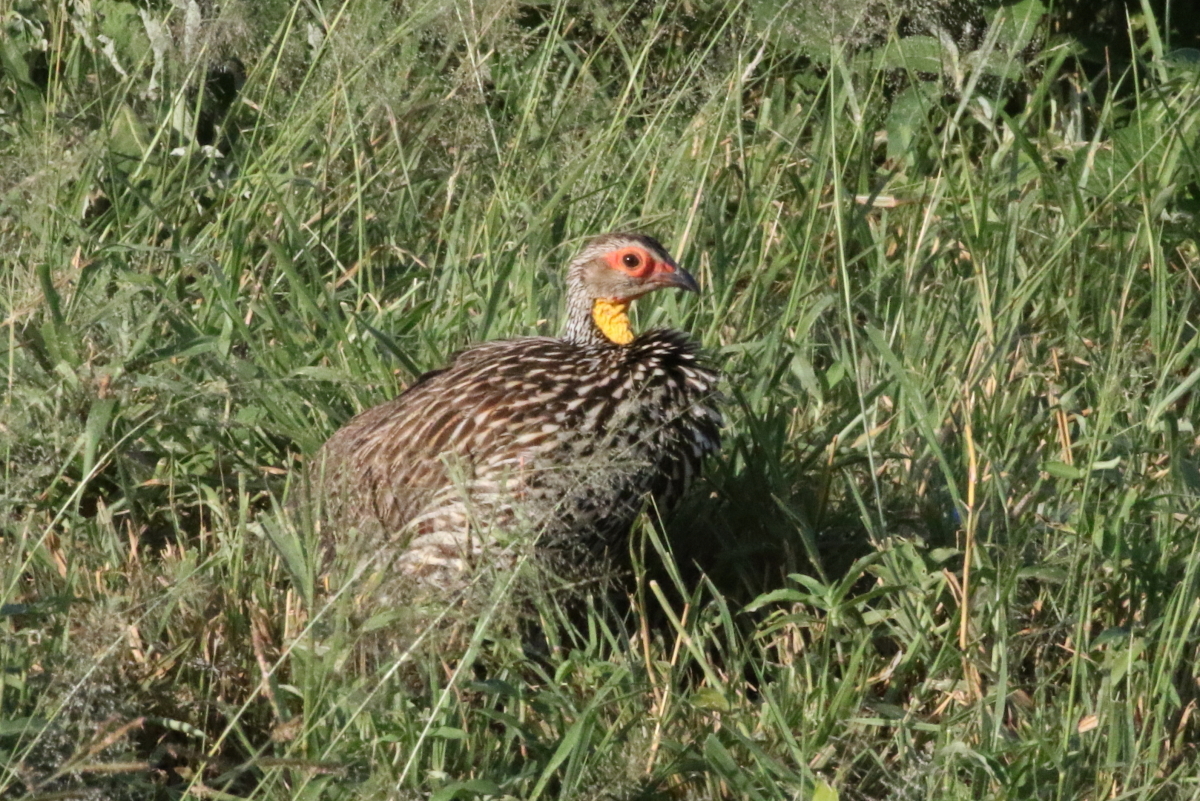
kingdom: Animalia
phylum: Chordata
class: Aves
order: Galliformes
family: Phasianidae
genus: Pternistis
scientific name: Pternistis leucoscepus
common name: Yellow-necked spurfowl
